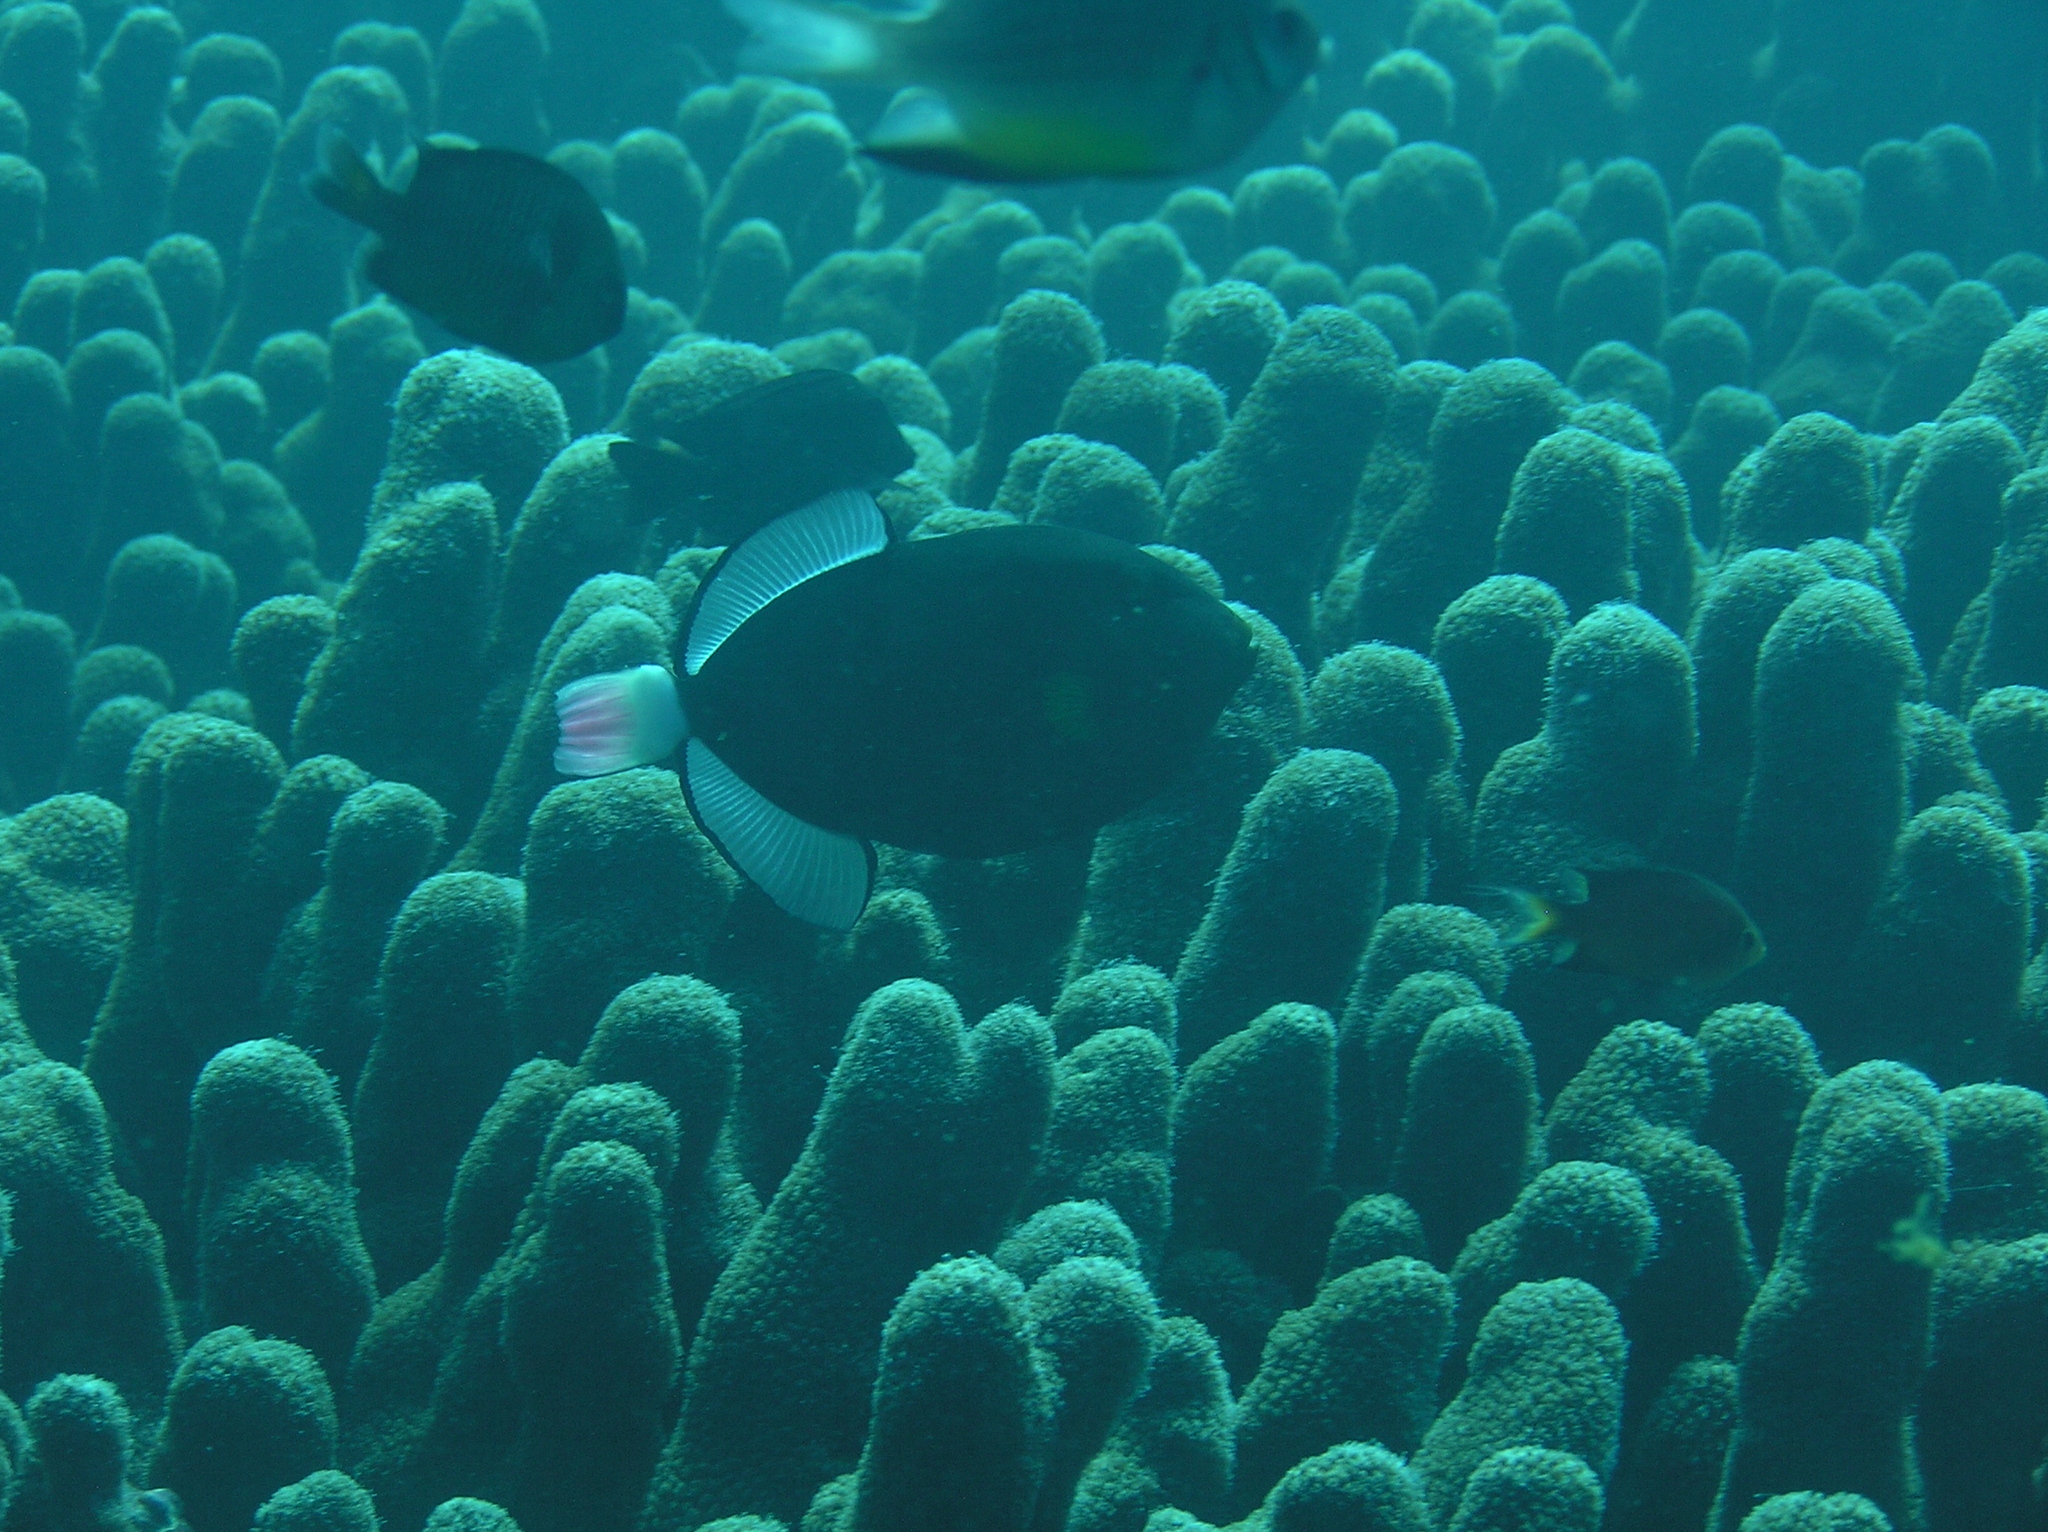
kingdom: Animalia
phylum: Chordata
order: Tetraodontiformes
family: Balistidae
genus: Melichthys
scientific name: Melichthys vidua
